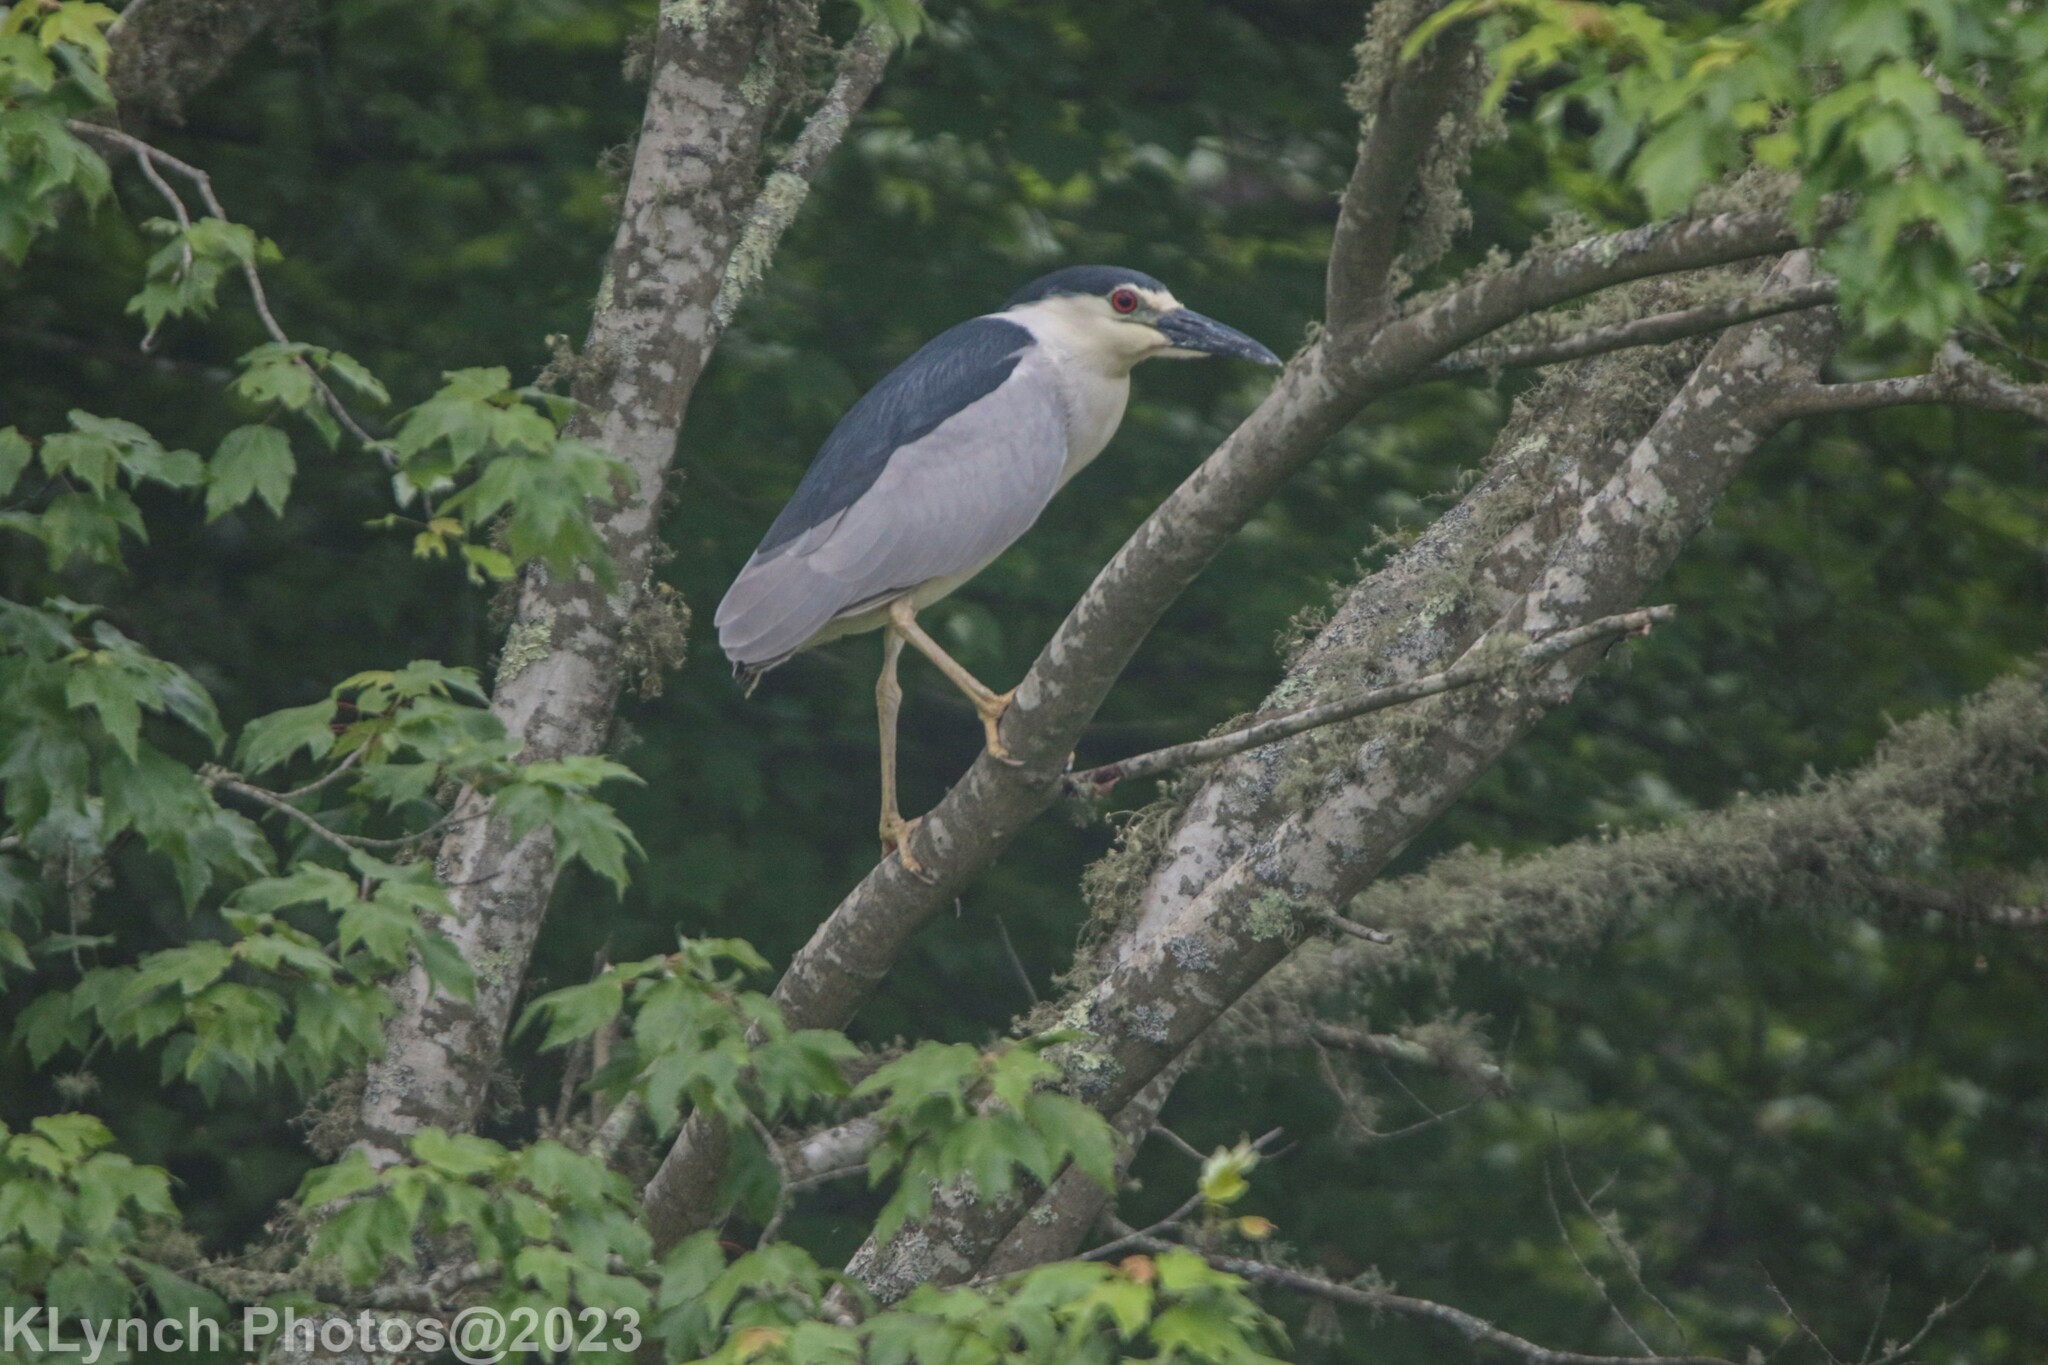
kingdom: Animalia
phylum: Chordata
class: Aves
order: Pelecaniformes
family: Ardeidae
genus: Nycticorax
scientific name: Nycticorax nycticorax
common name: Black-crowned night heron
